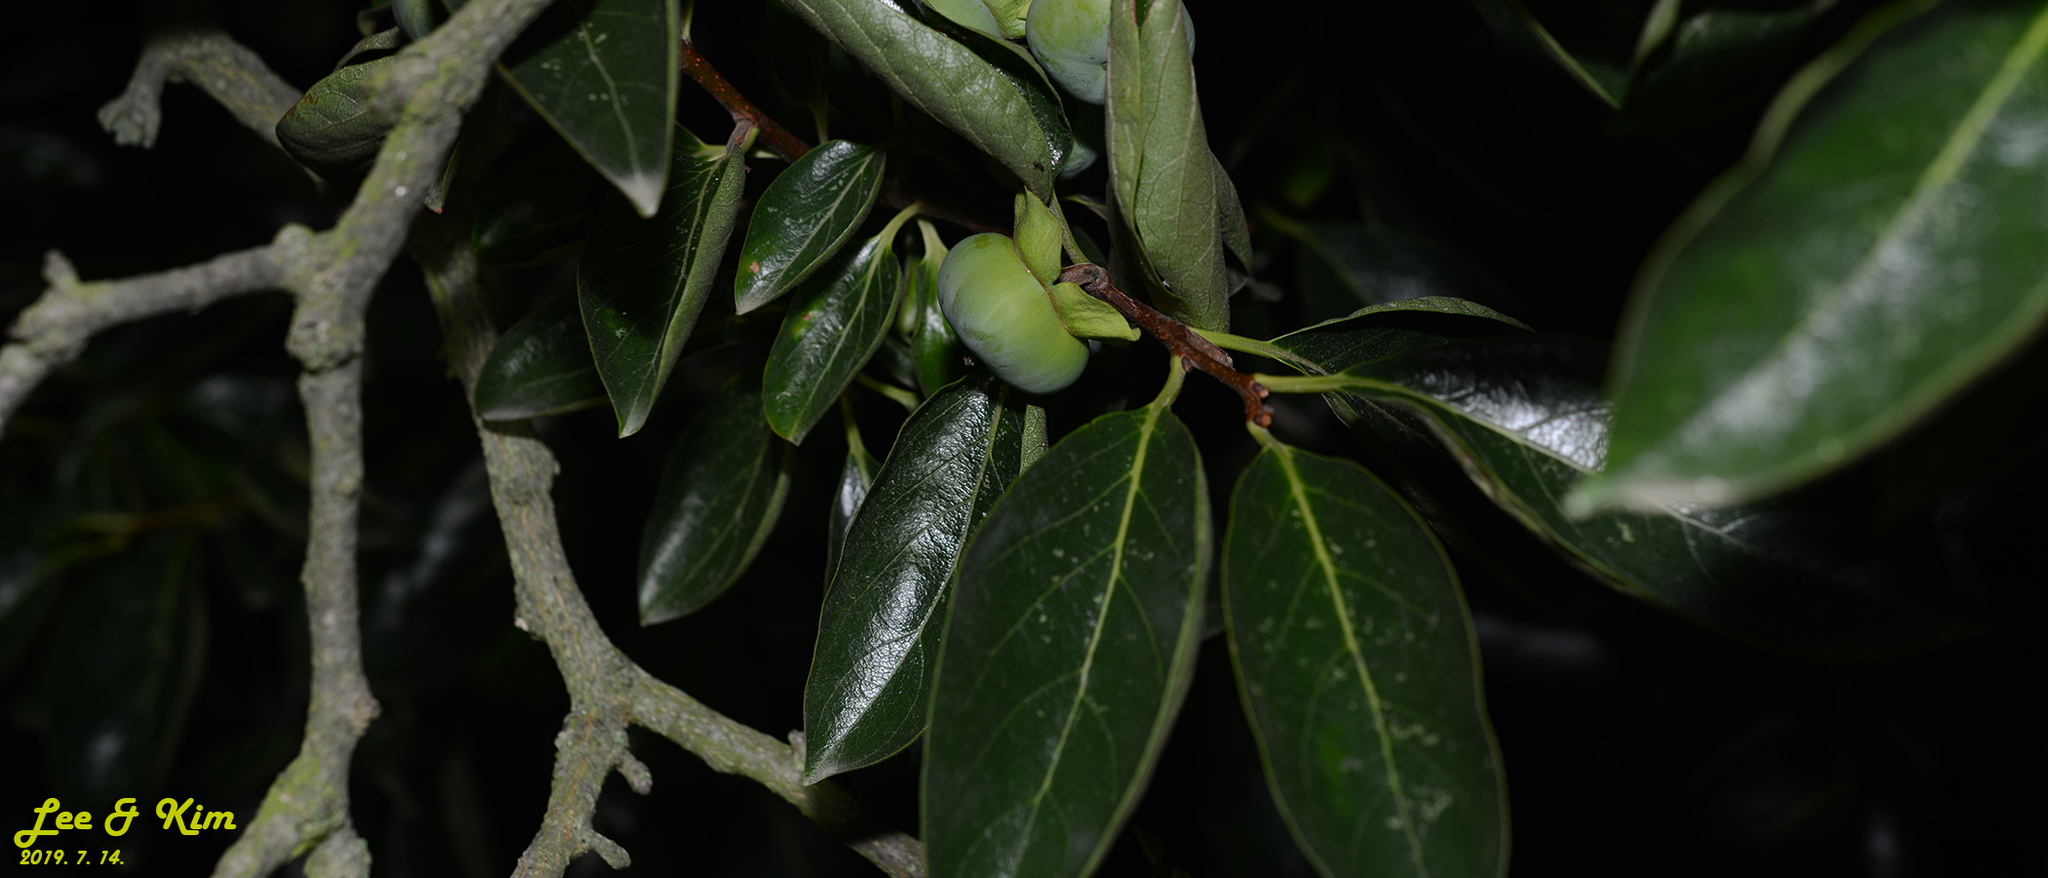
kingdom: Plantae
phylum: Tracheophyta
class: Magnoliopsida
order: Ericales
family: Ebenaceae
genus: Diospyros
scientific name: Diospyros kaki
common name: Persimmon
